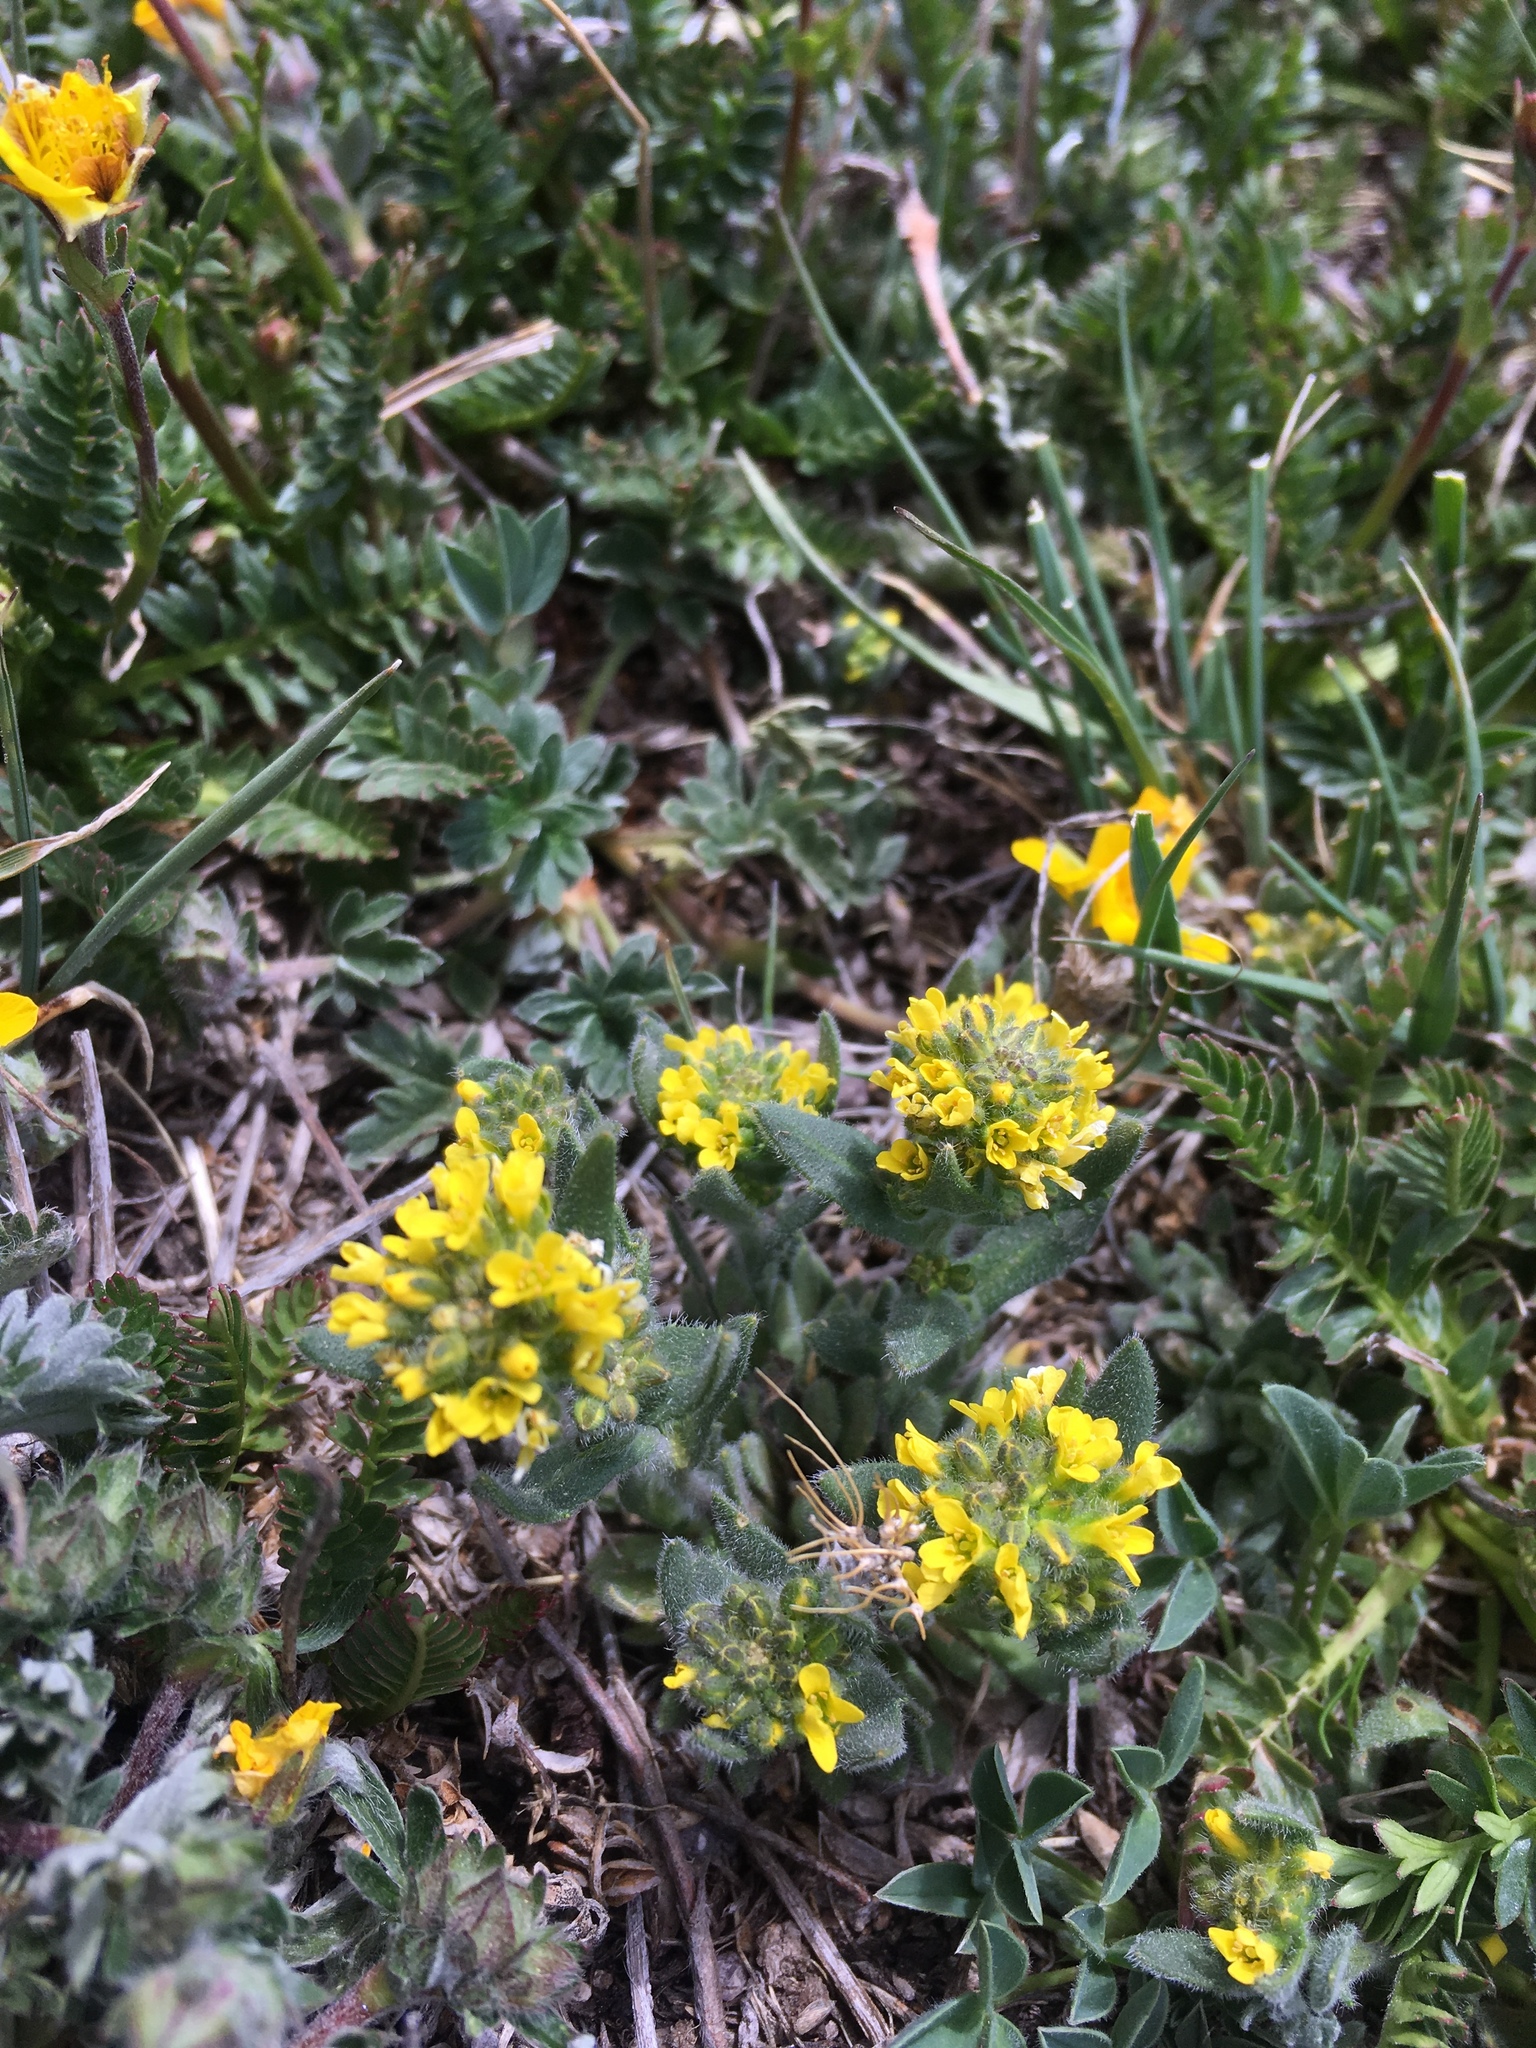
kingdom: Plantae
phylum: Tracheophyta
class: Magnoliopsida
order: Brassicales
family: Brassicaceae
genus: Draba
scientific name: Draba aurea
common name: Golden draba
